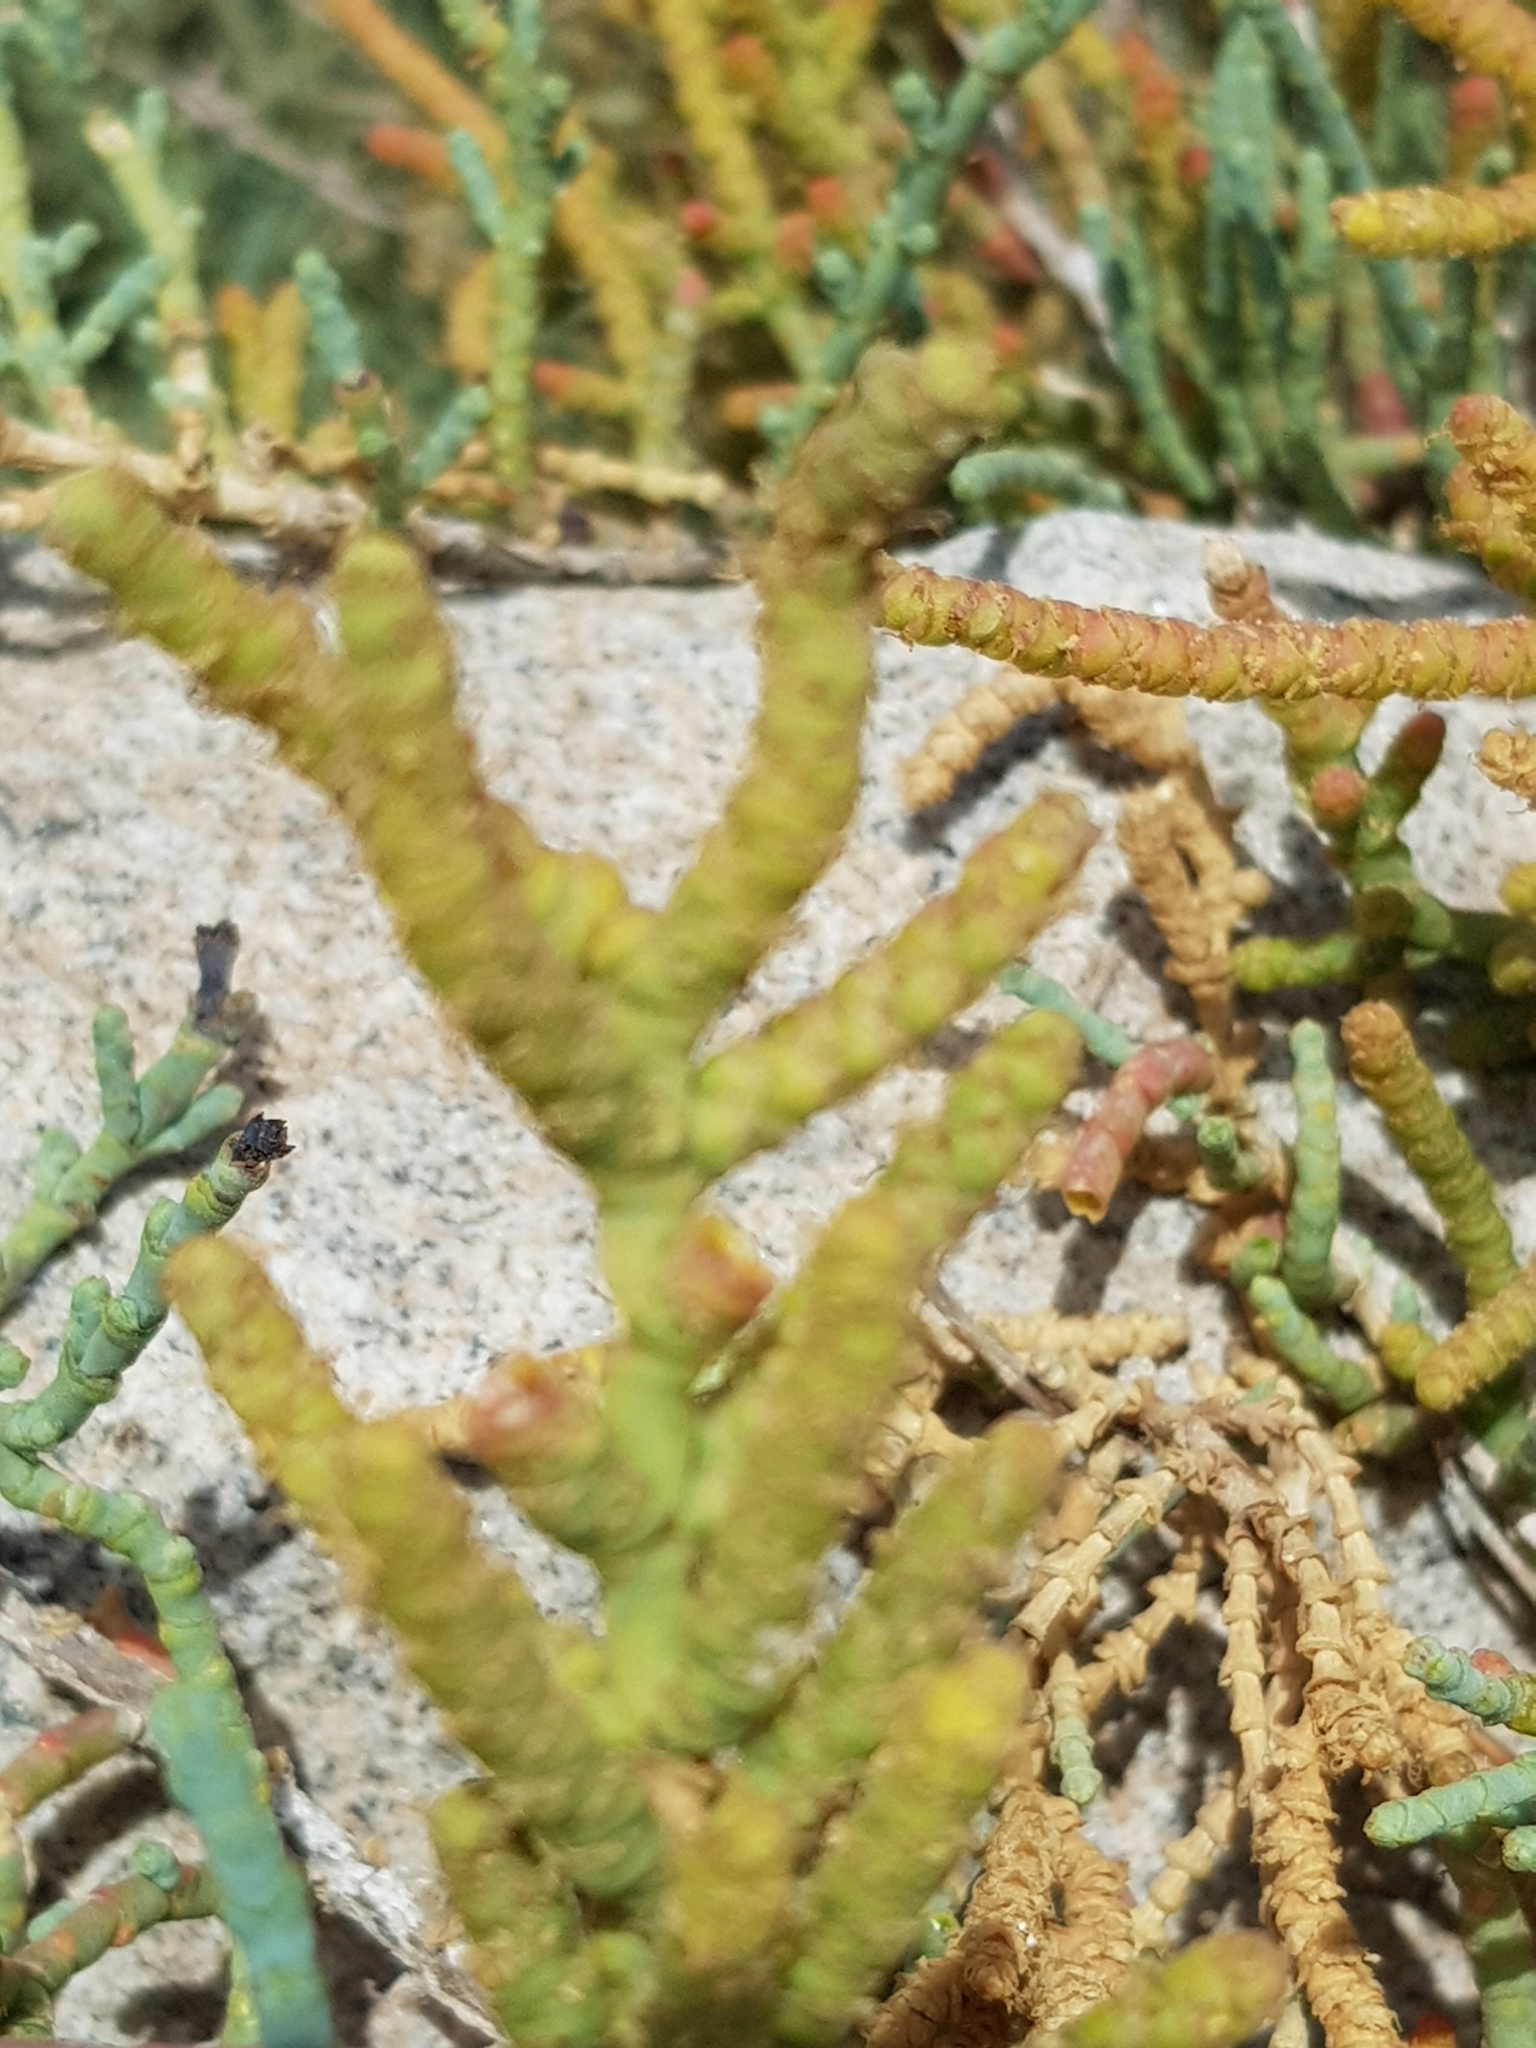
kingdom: Plantae
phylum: Tracheophyta
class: Magnoliopsida
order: Caryophyllales
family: Amaranthaceae
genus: Arthrocaulon
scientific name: Arthrocaulon macrostachyum
